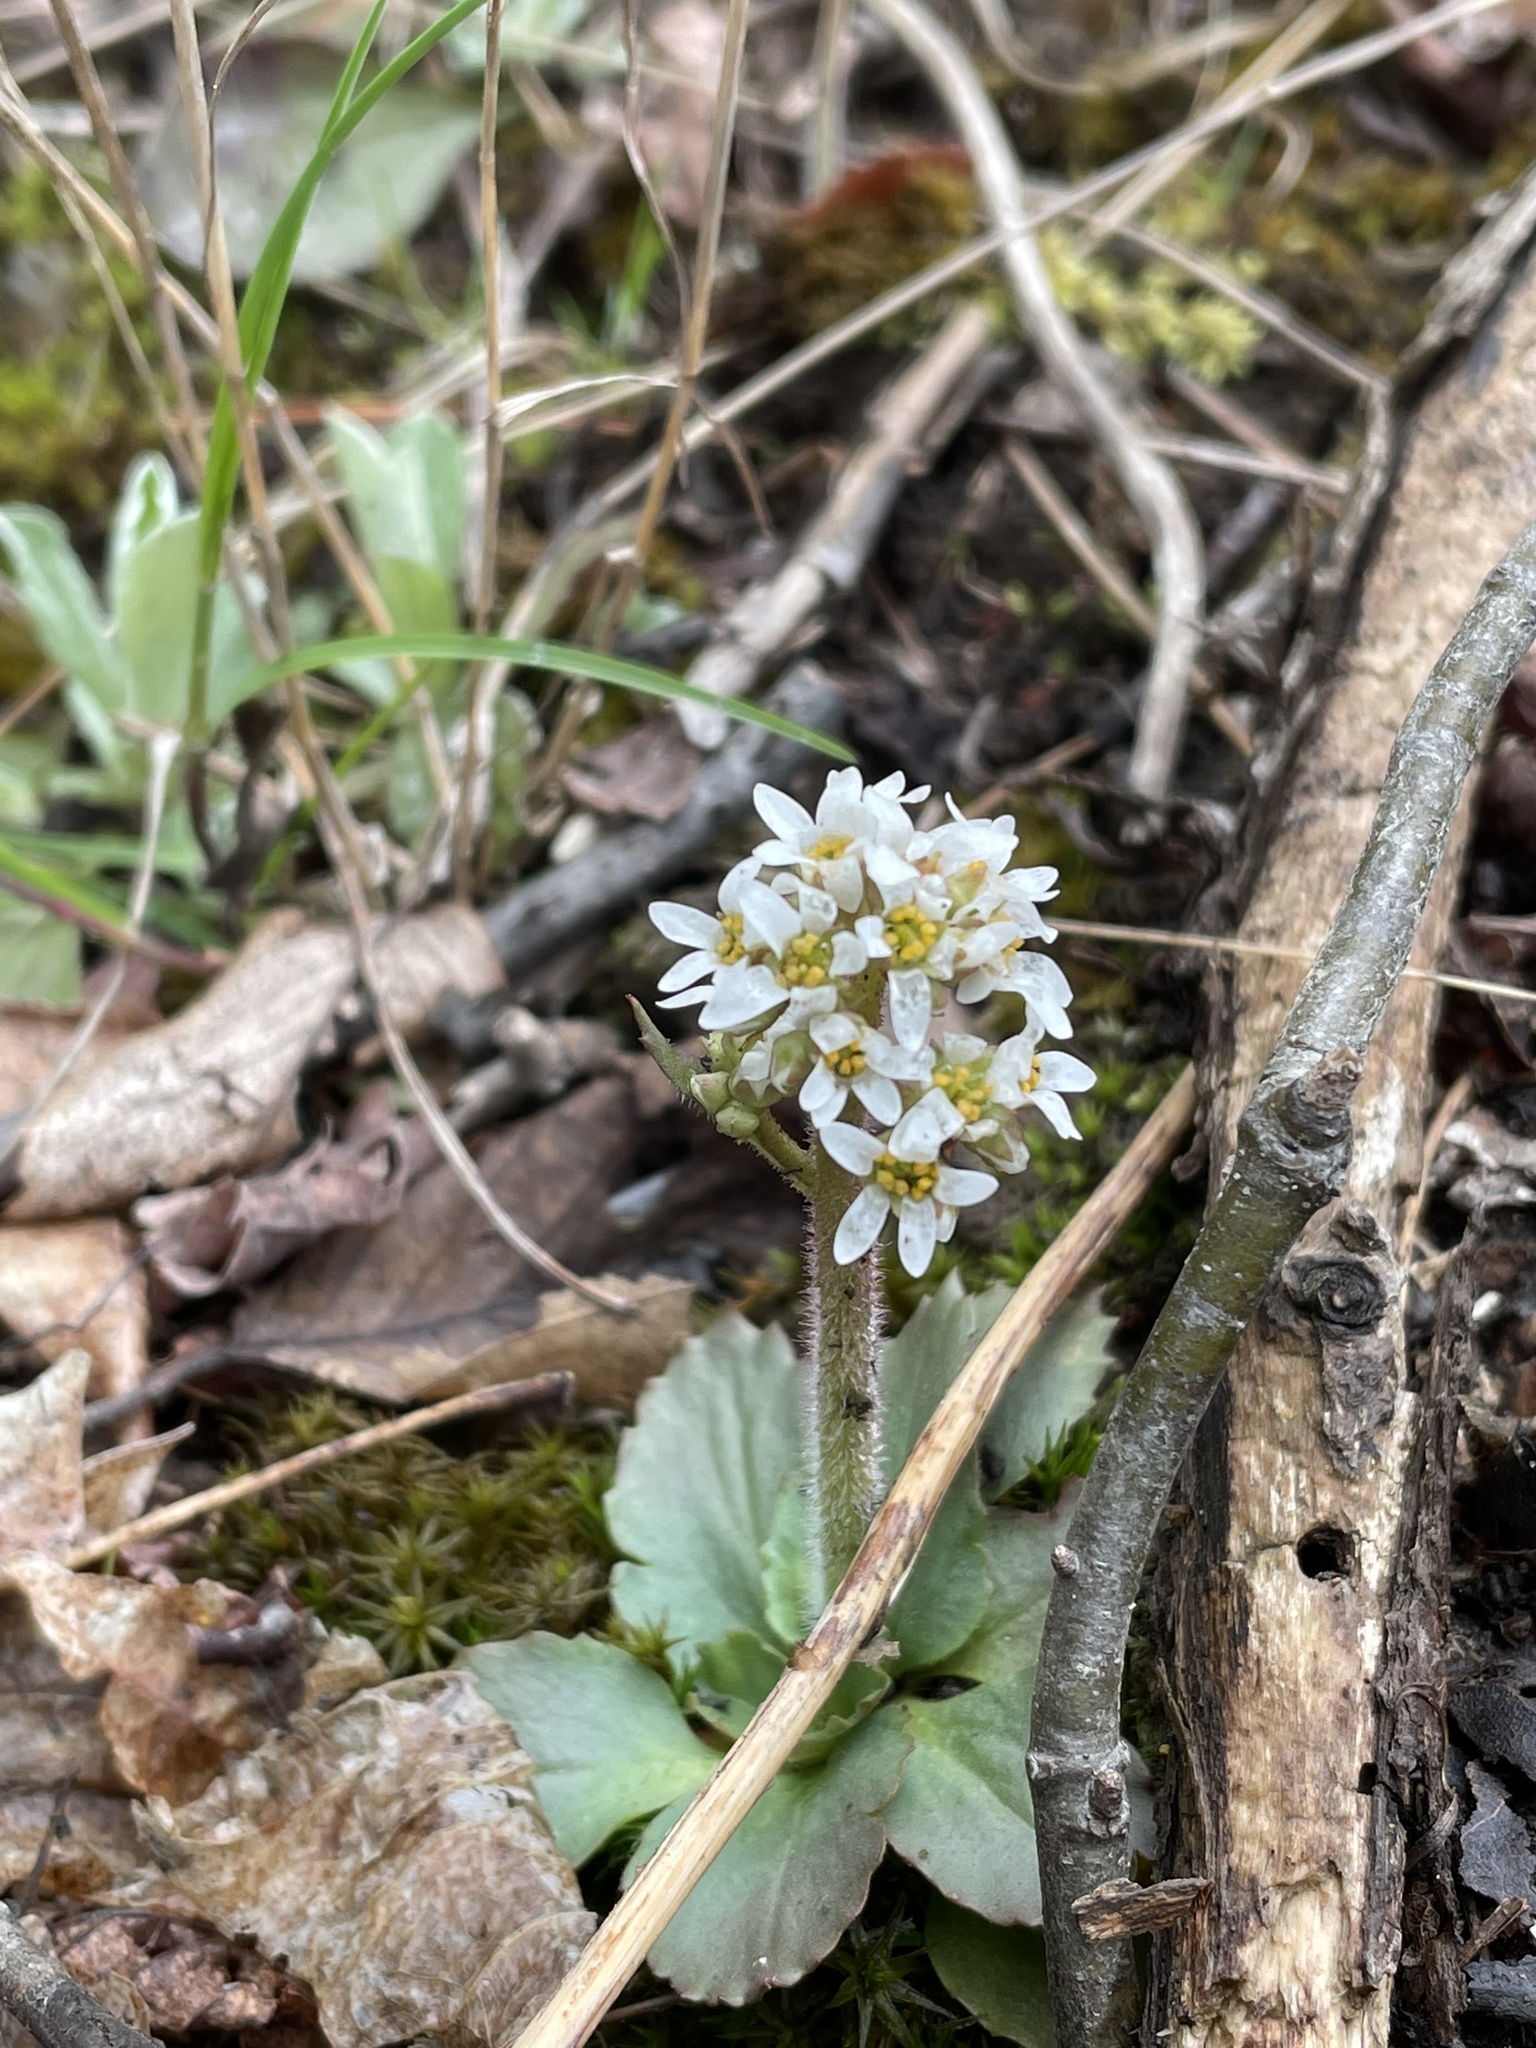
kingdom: Plantae
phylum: Tracheophyta
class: Magnoliopsida
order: Saxifragales
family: Saxifragaceae
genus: Micranthes
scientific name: Micranthes virginiensis
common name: Early saxifrage
